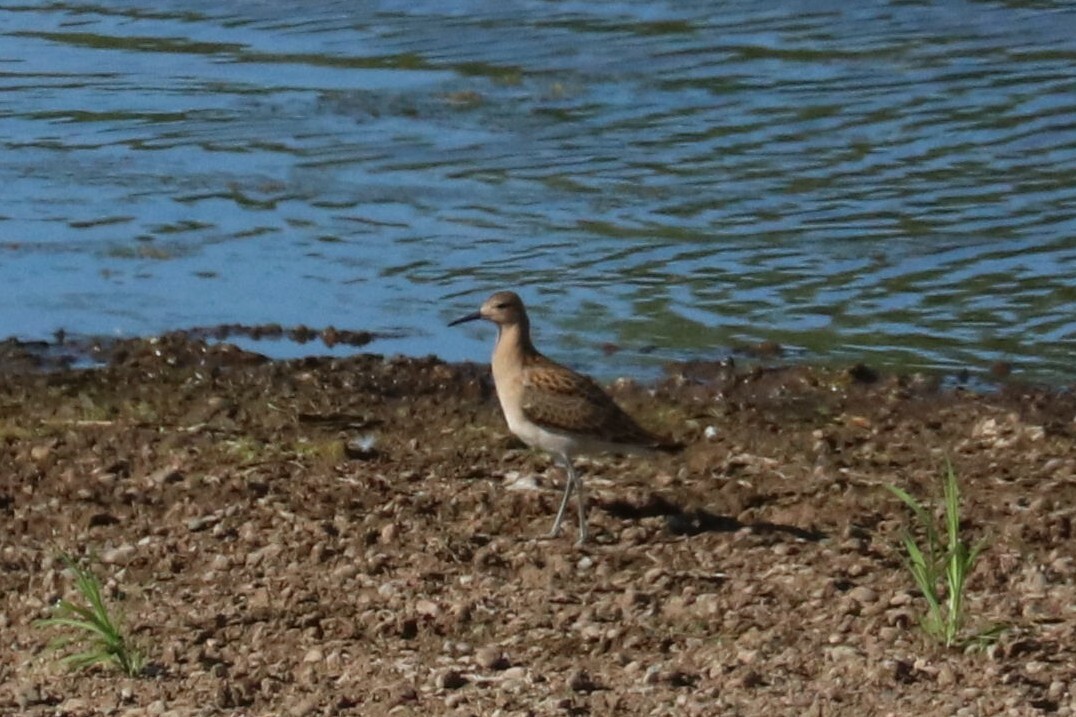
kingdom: Animalia
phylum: Chordata
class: Aves
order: Charadriiformes
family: Scolopacidae
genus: Calidris
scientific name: Calidris pugnax
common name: Ruff
